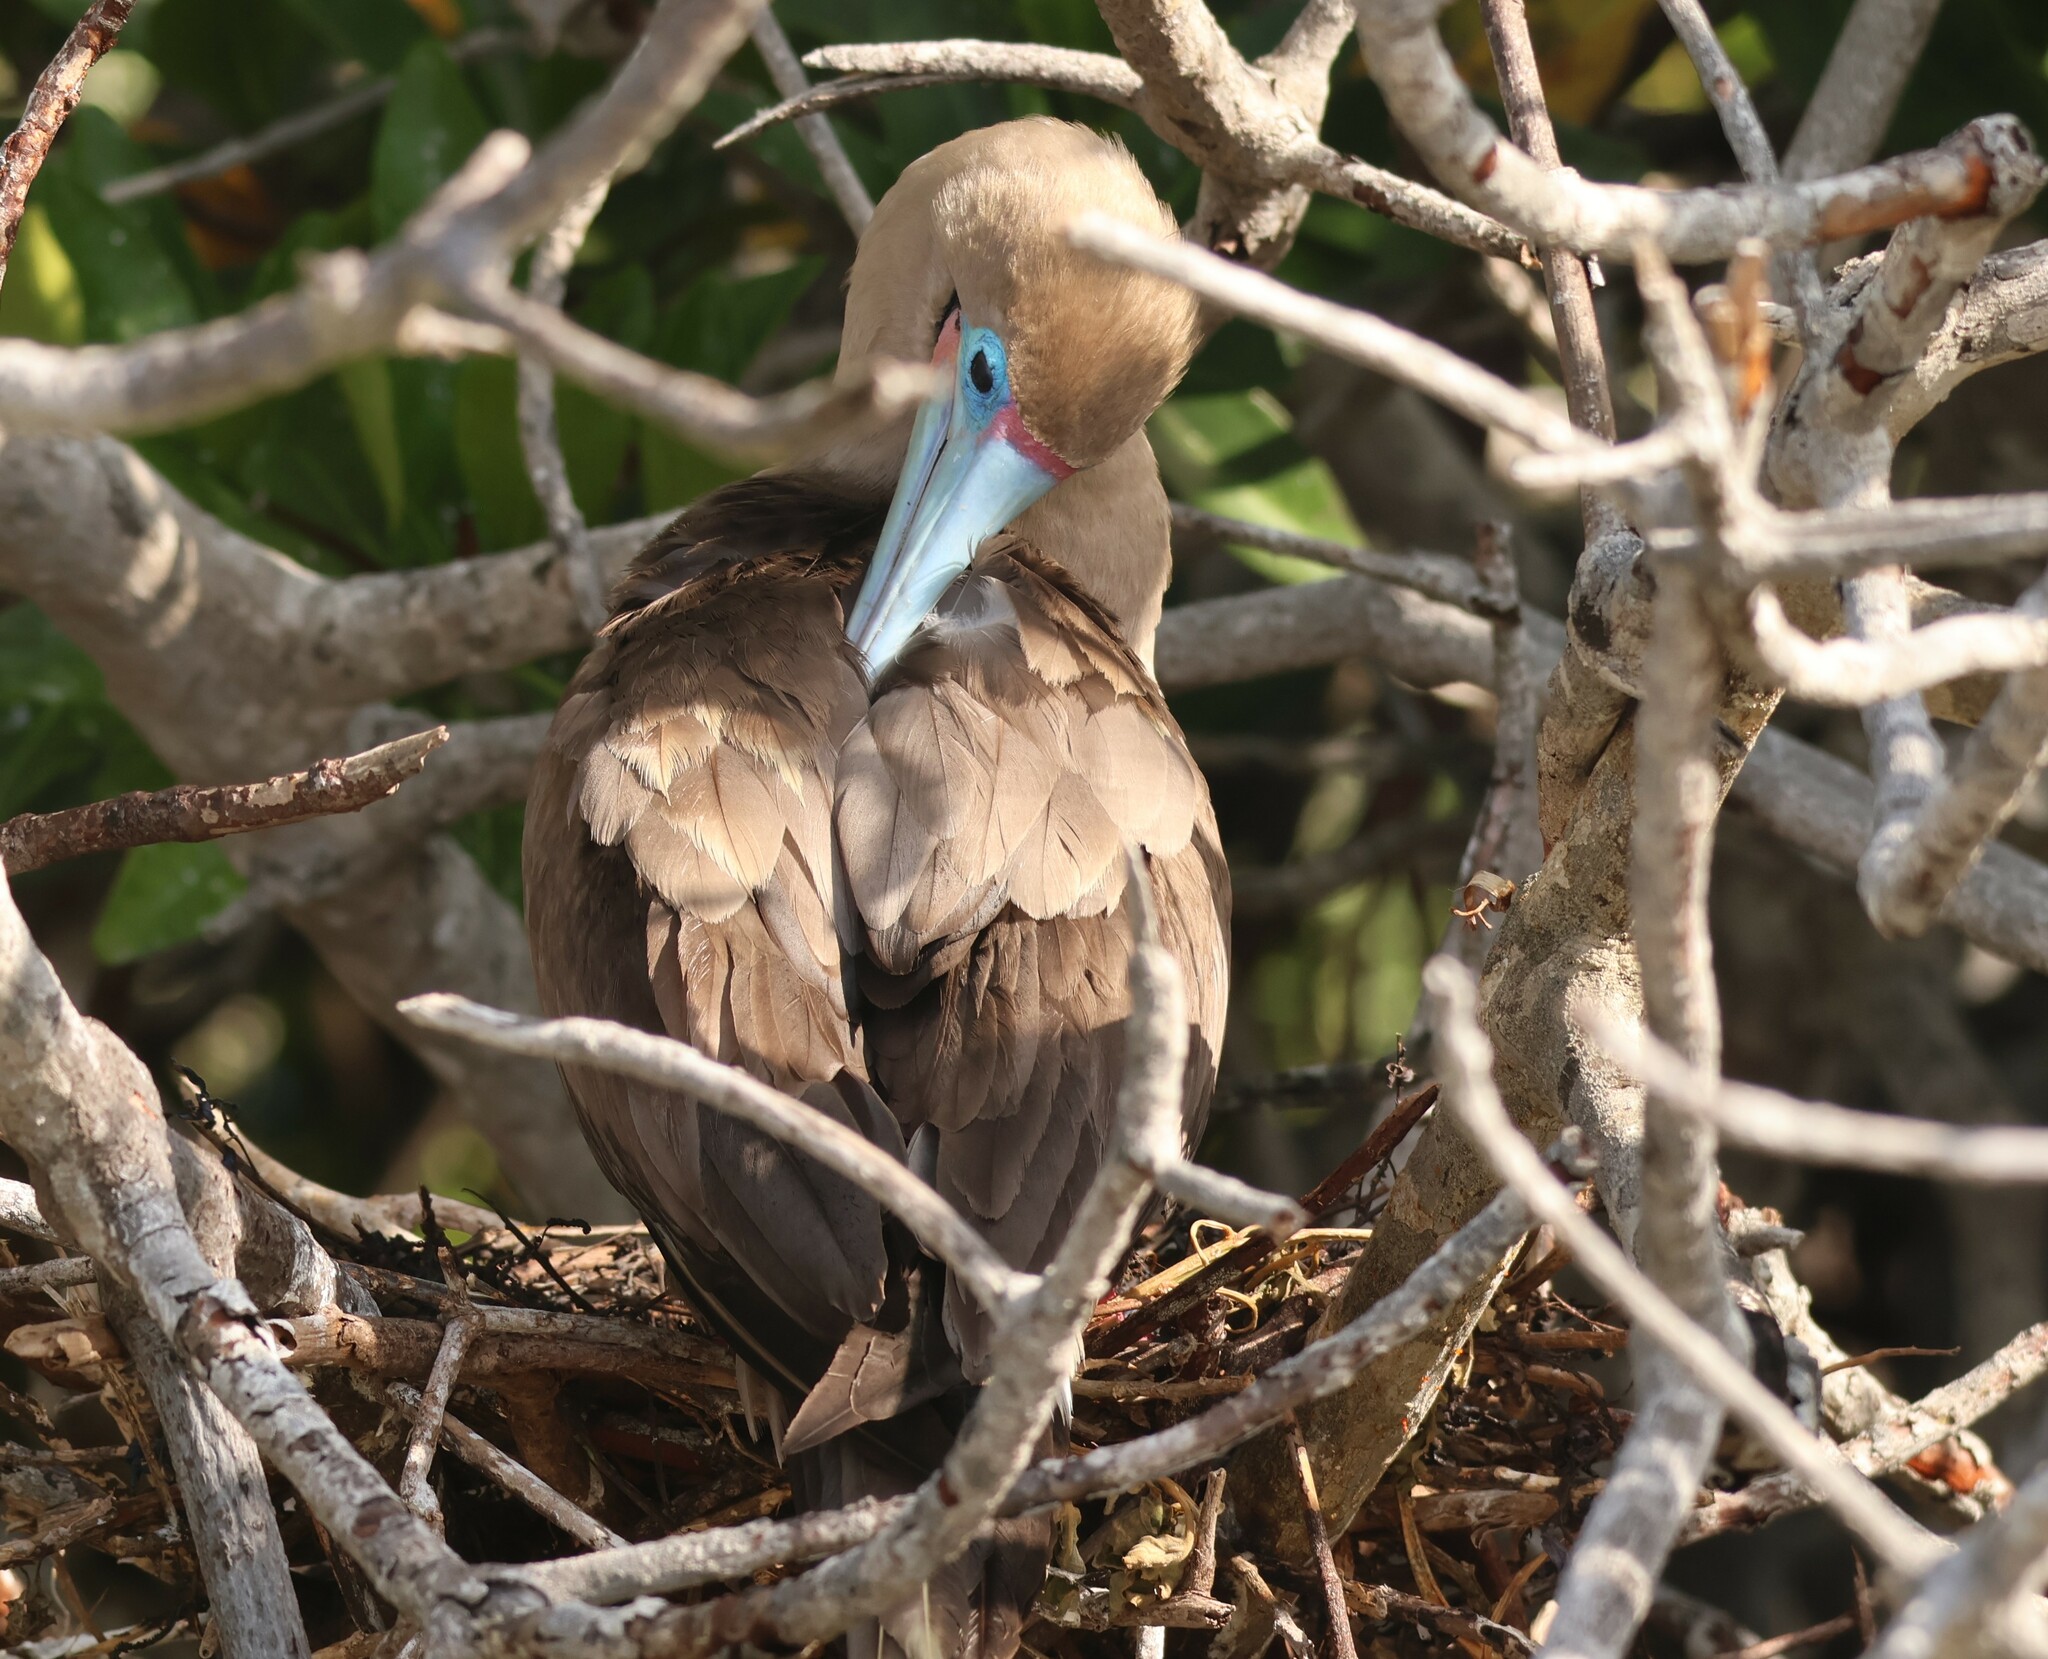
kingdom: Animalia
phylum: Chordata
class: Aves
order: Suliformes
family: Sulidae
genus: Sula
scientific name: Sula sula
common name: Red-footed booby
